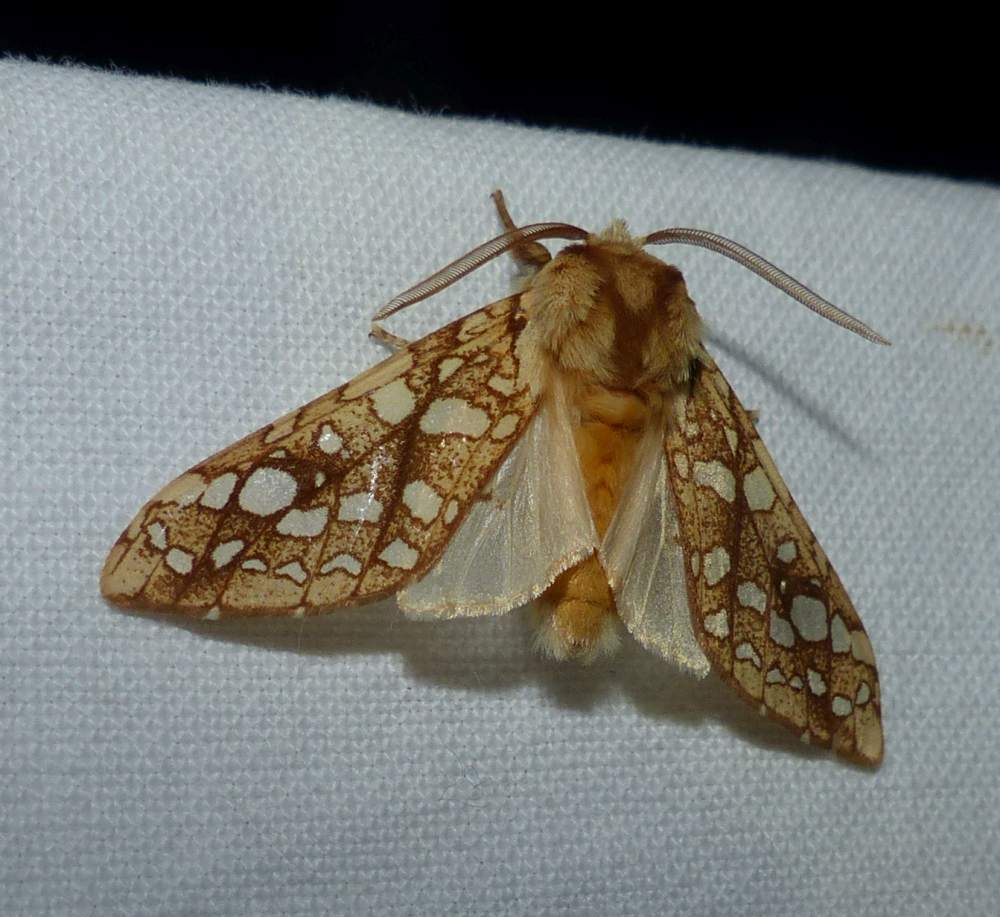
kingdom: Animalia
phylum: Arthropoda
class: Insecta
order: Lepidoptera
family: Erebidae
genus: Lophocampa
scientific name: Lophocampa caryae
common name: Hickory tussock moth
